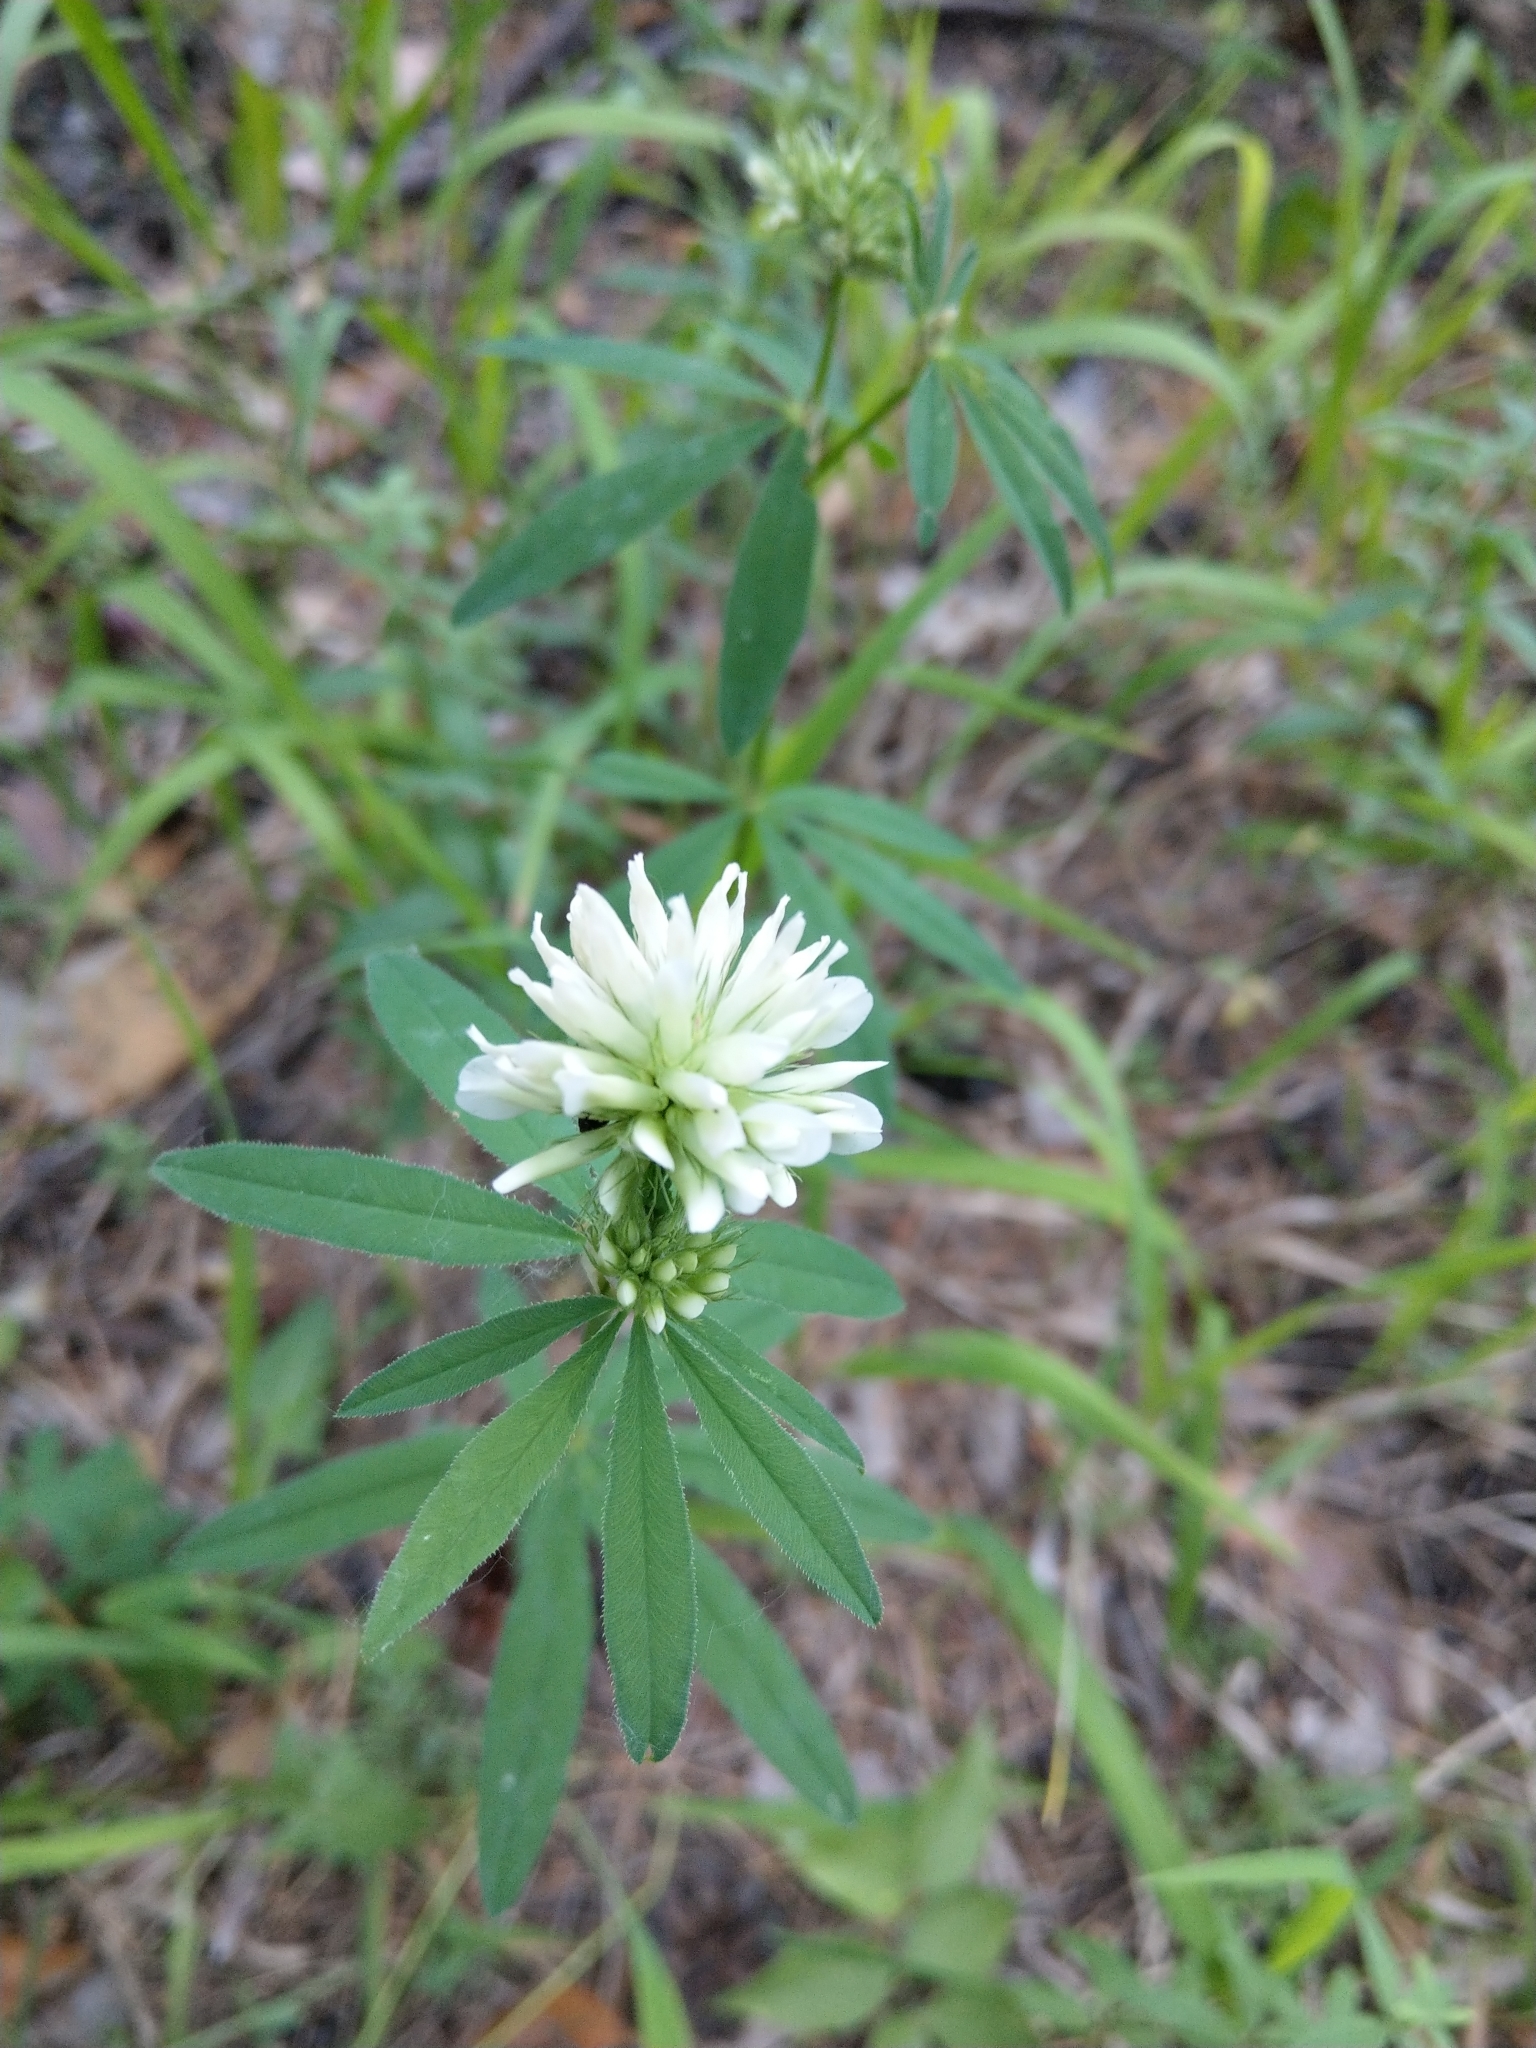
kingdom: Plantae
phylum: Tracheophyta
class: Magnoliopsida
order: Fabales
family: Fabaceae
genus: Trifolium
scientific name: Trifolium lupinaster
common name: Lupine clover
